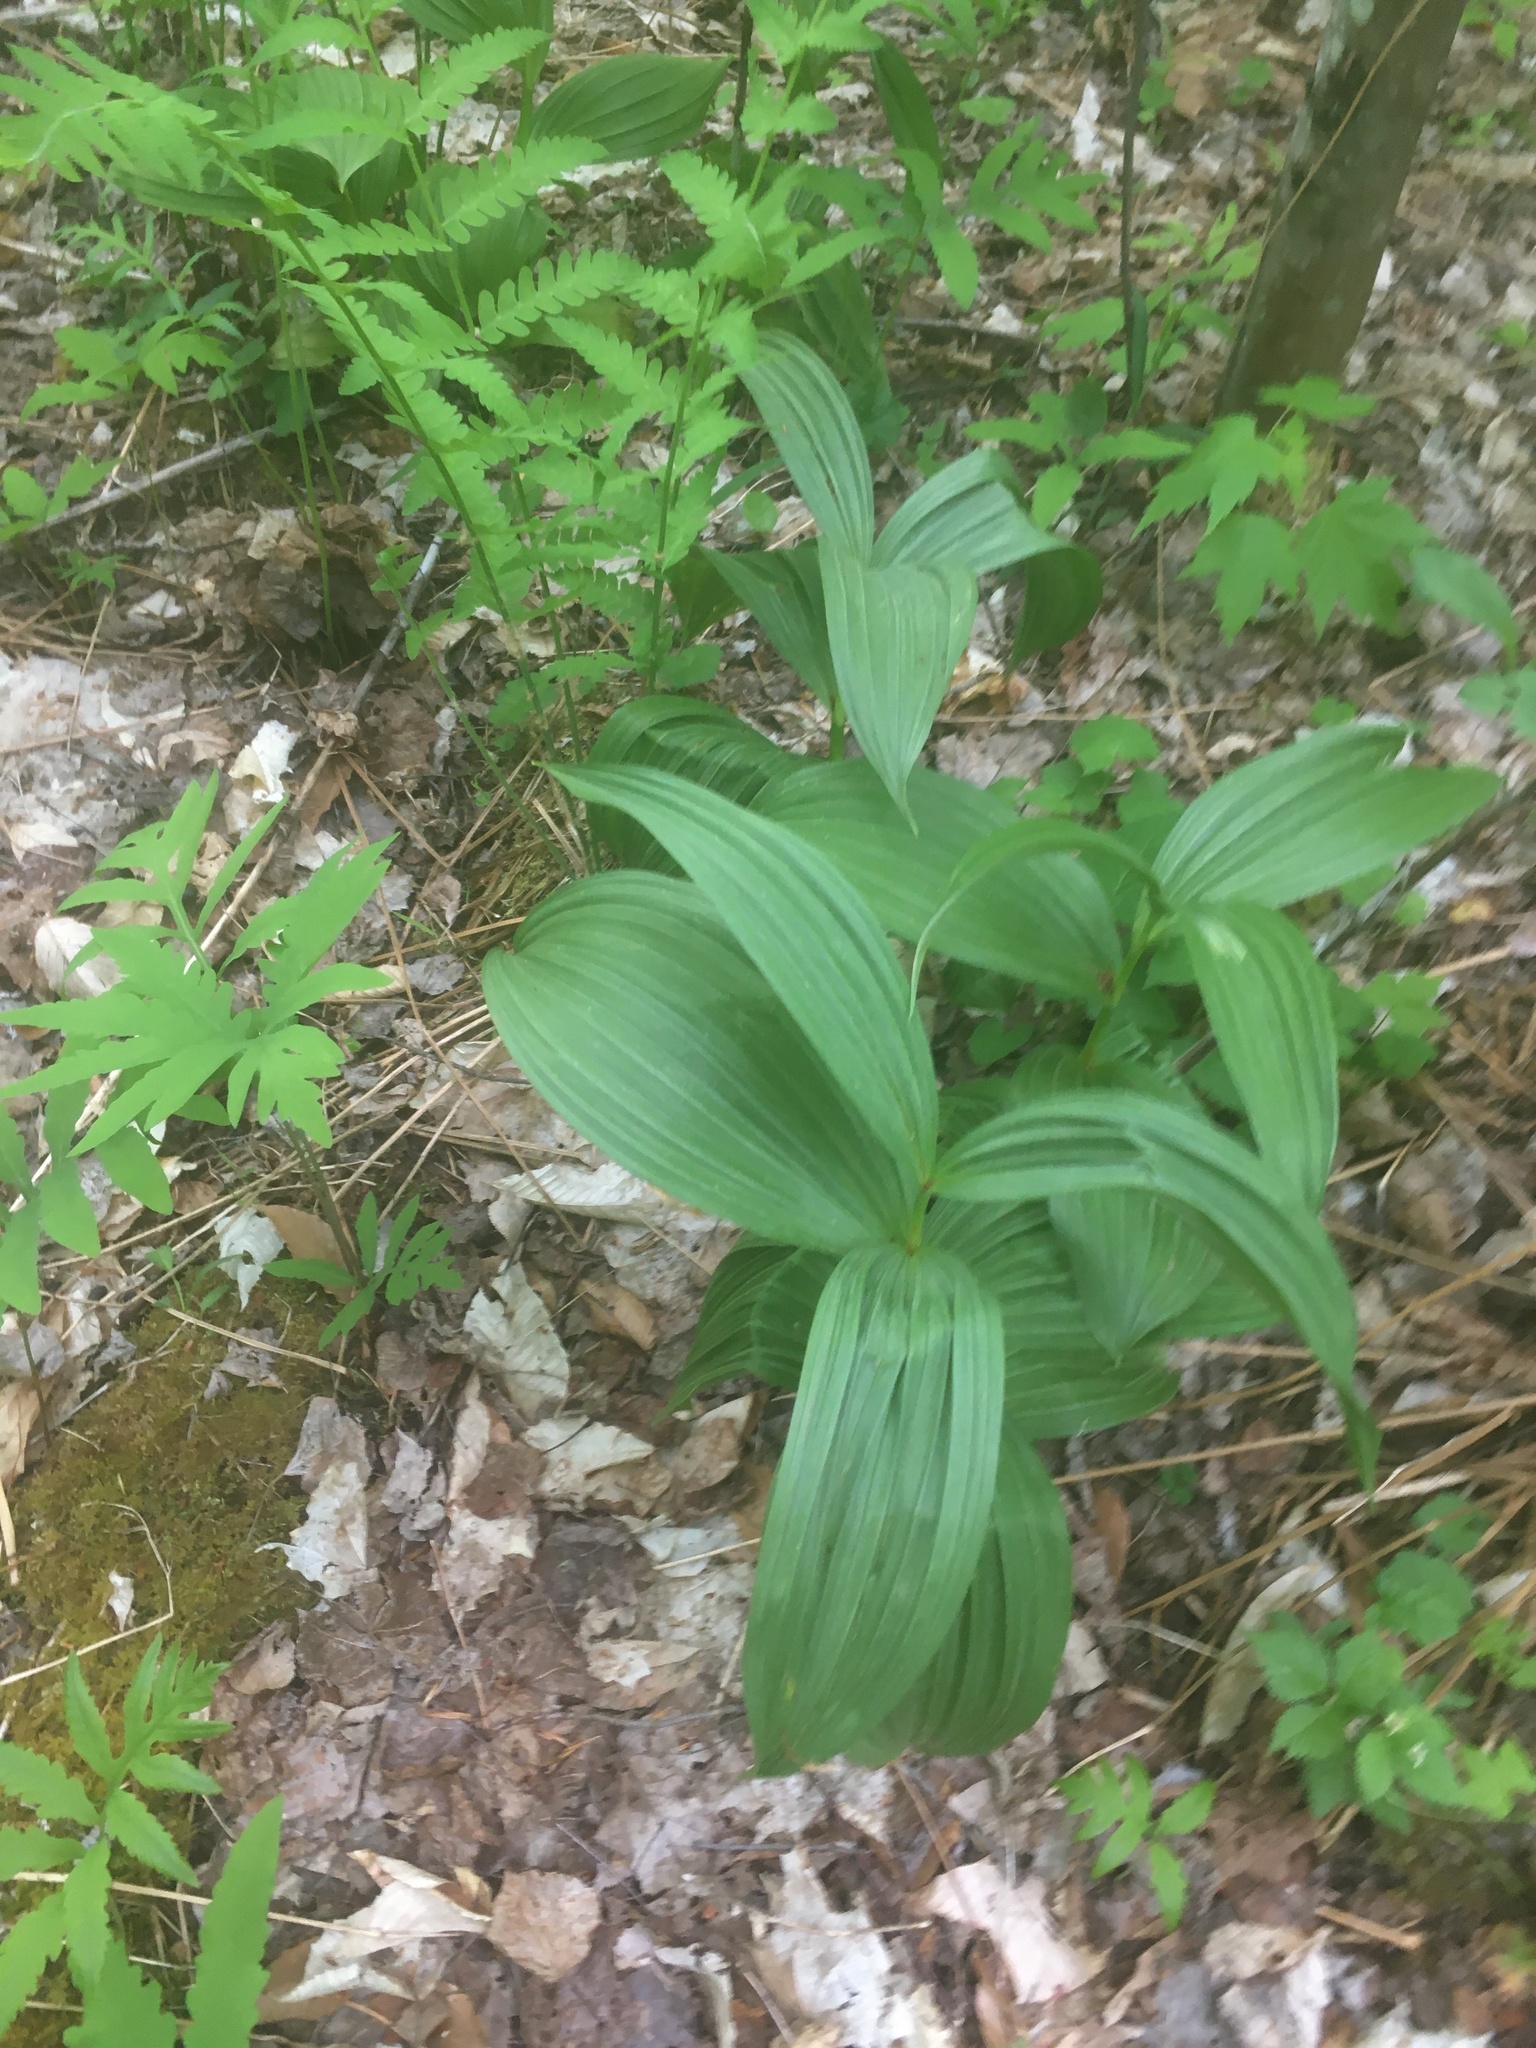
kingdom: Plantae
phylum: Tracheophyta
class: Liliopsida
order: Liliales
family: Melanthiaceae
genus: Veratrum
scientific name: Veratrum viride
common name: American false hellebore
